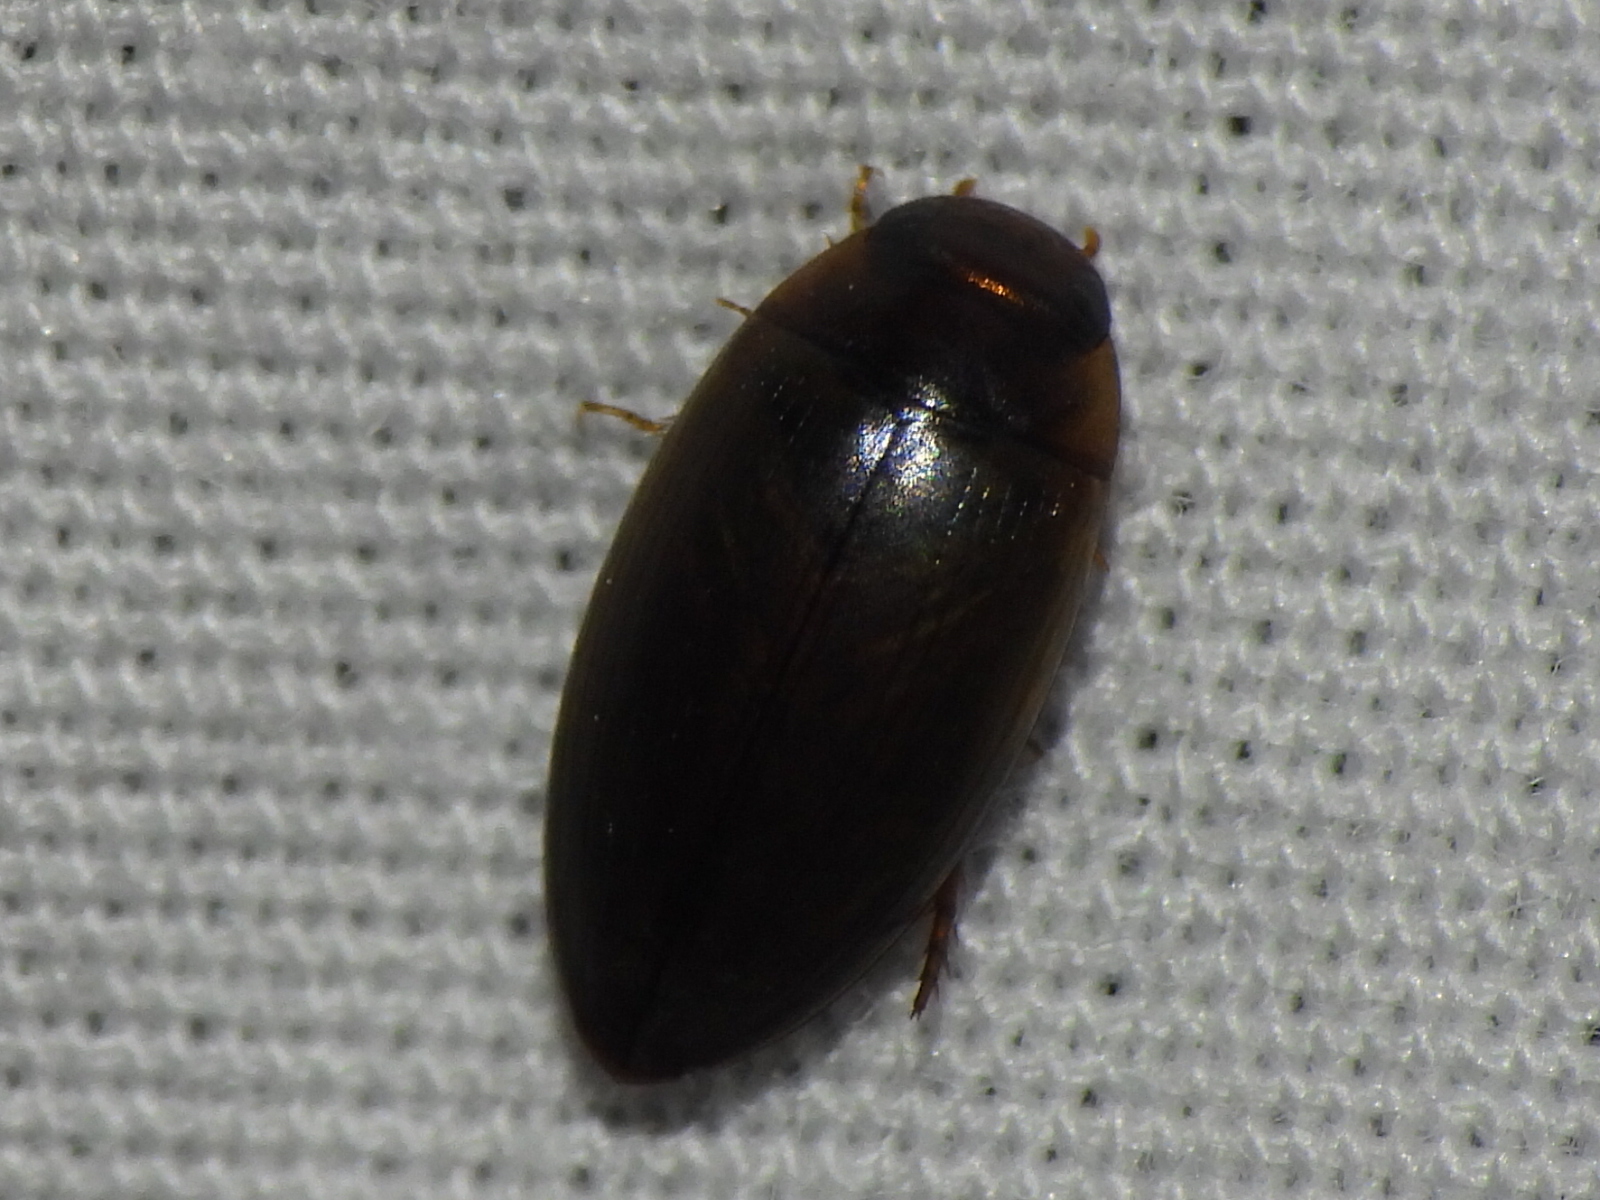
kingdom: Animalia
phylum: Arthropoda
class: Insecta
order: Coleoptera
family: Dytiscidae
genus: Copelatus
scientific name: Copelatus chevrolati
